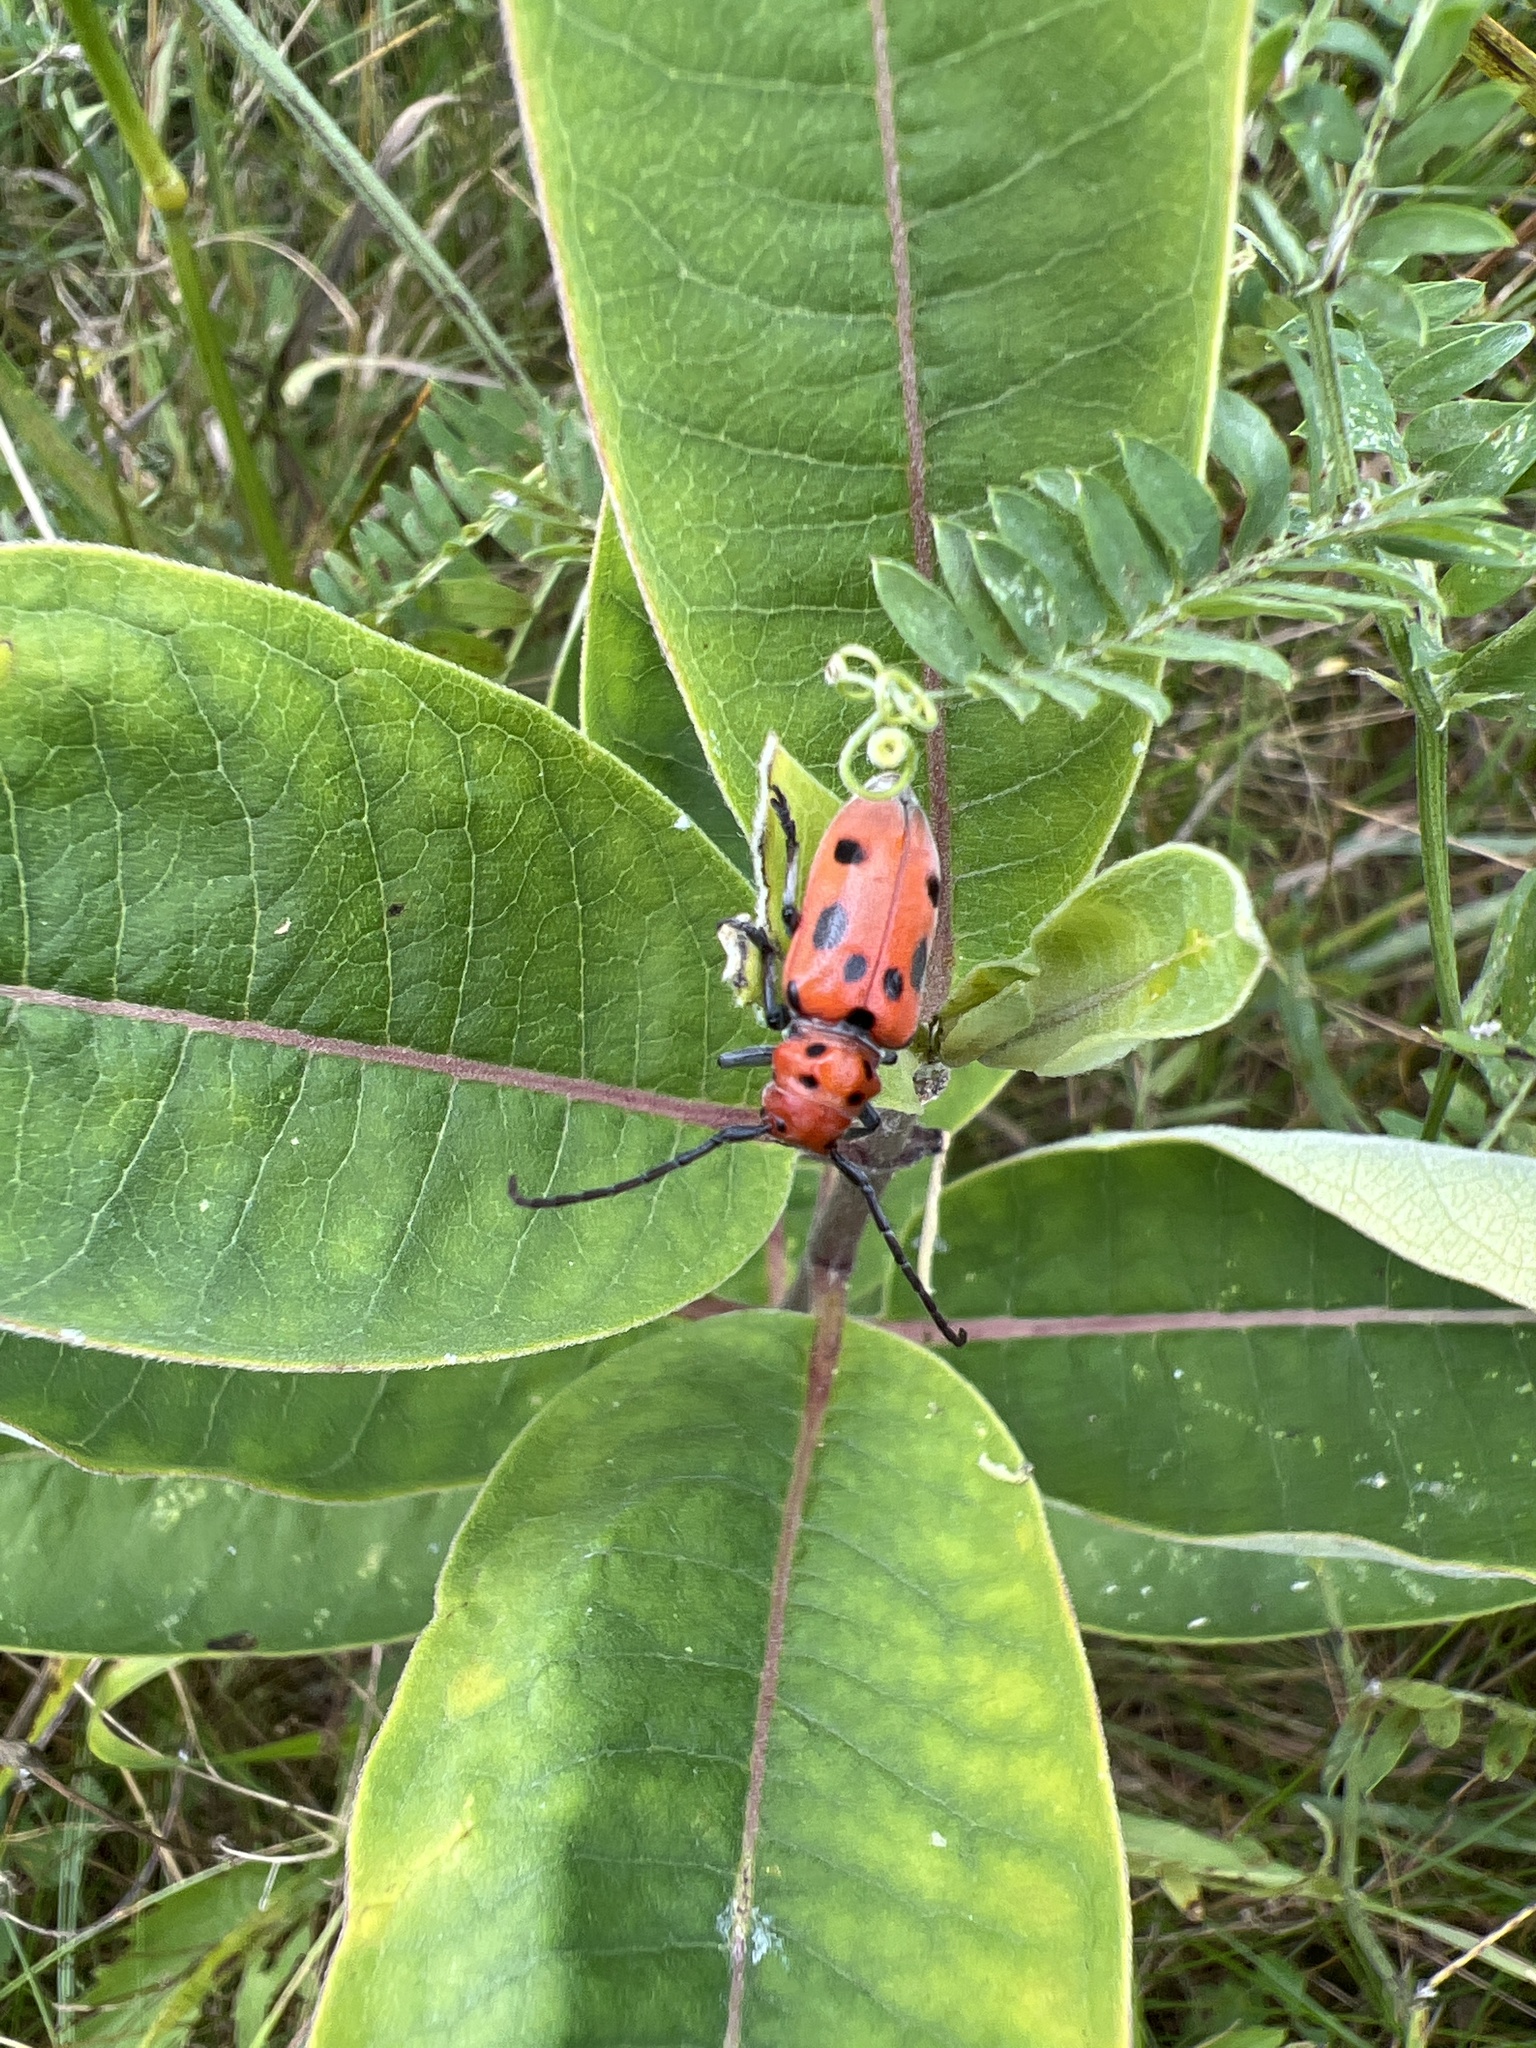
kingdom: Animalia
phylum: Arthropoda
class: Insecta
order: Coleoptera
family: Cerambycidae
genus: Tetraopes
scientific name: Tetraopes tetrophthalmus
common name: Red milkweed beetle
